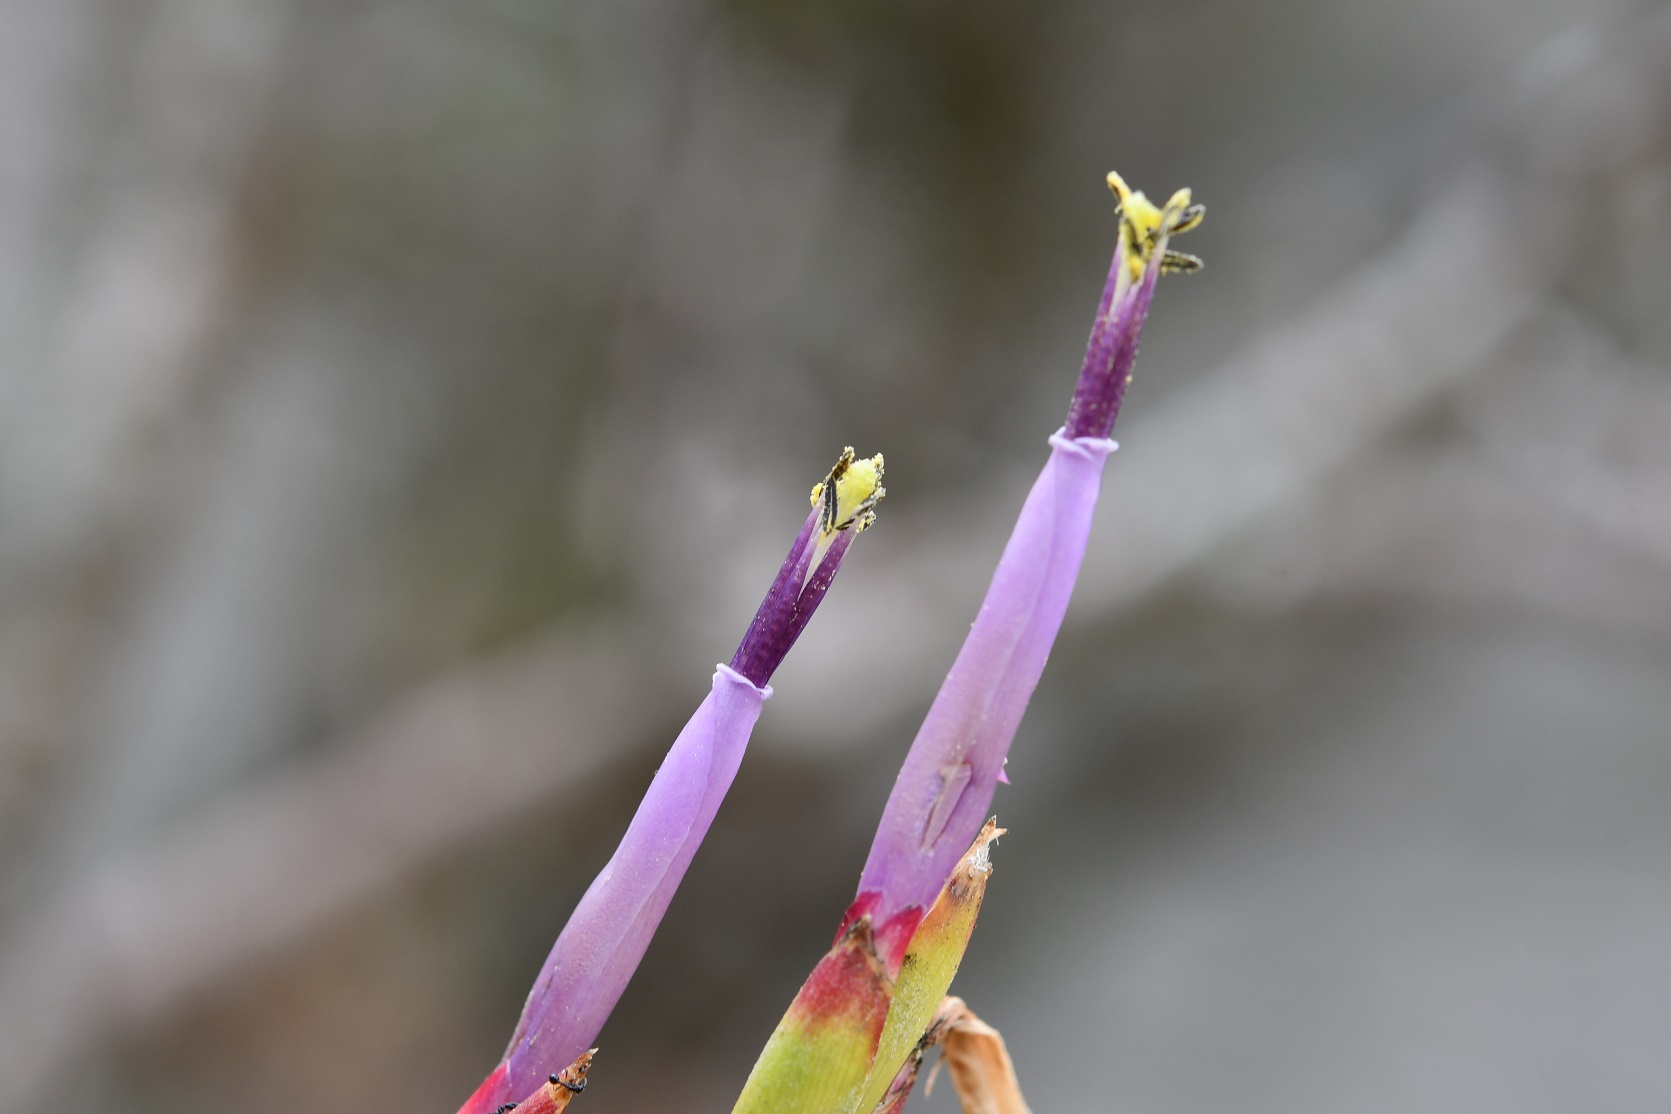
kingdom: Plantae
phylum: Tracheophyta
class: Liliopsida
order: Poales
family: Bromeliaceae
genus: Tillandsia
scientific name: Tillandsia belloensis
